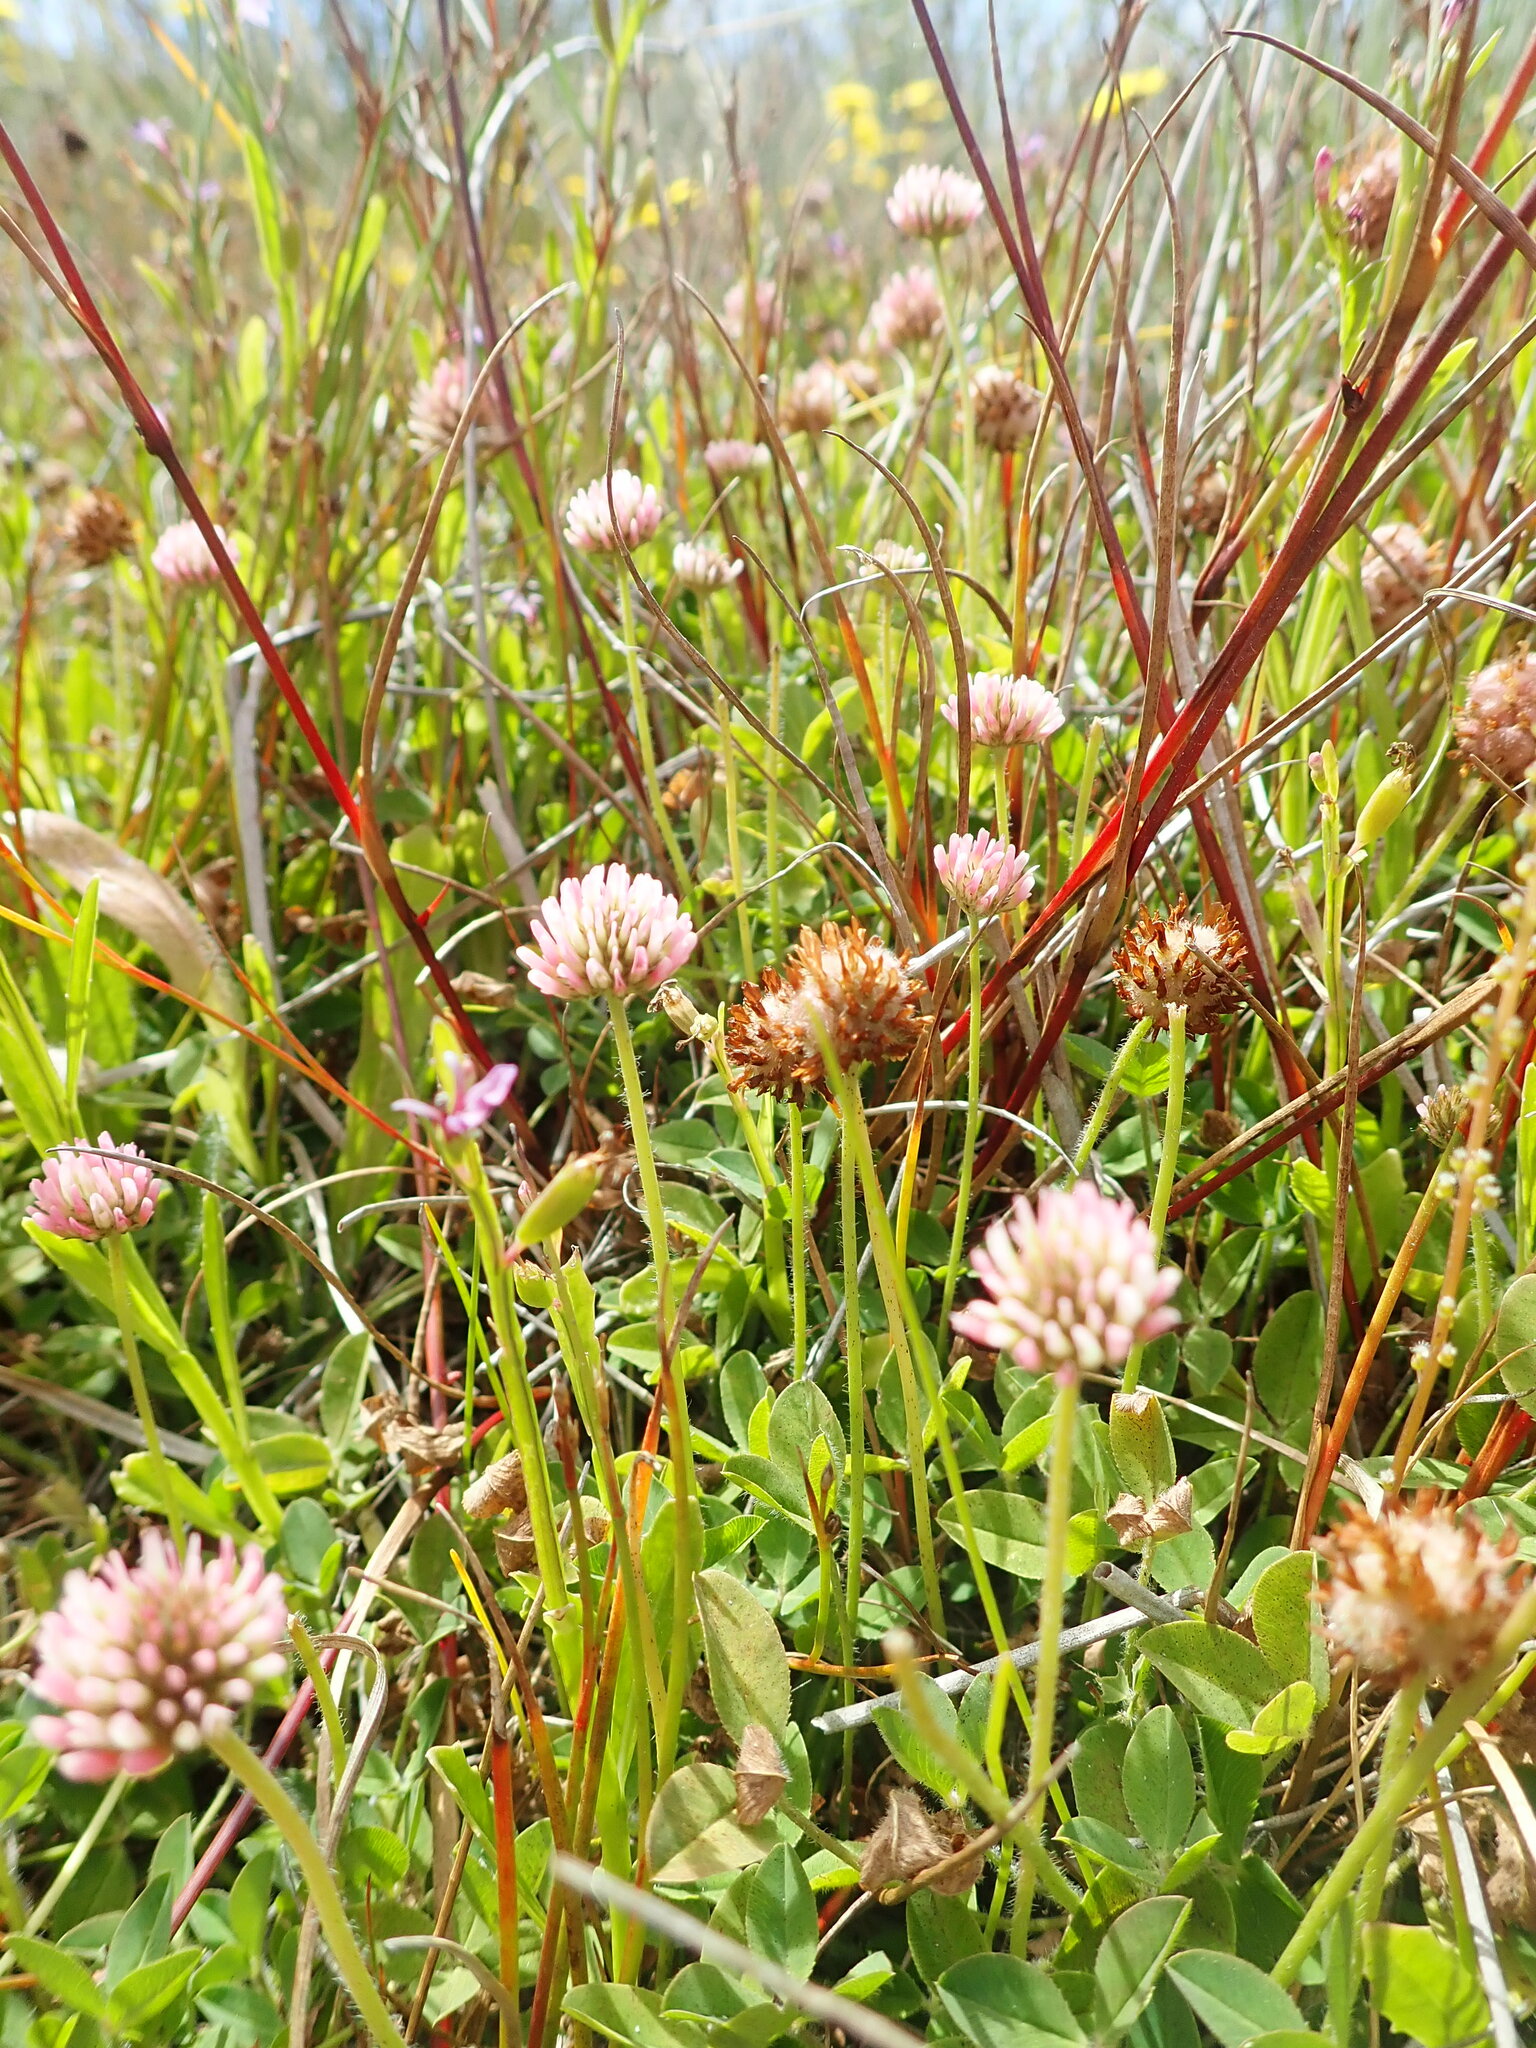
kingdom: Plantae
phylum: Tracheophyta
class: Magnoliopsida
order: Fabales
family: Fabaceae
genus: Trifolium
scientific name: Trifolium fragiferum
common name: Strawberry clover
